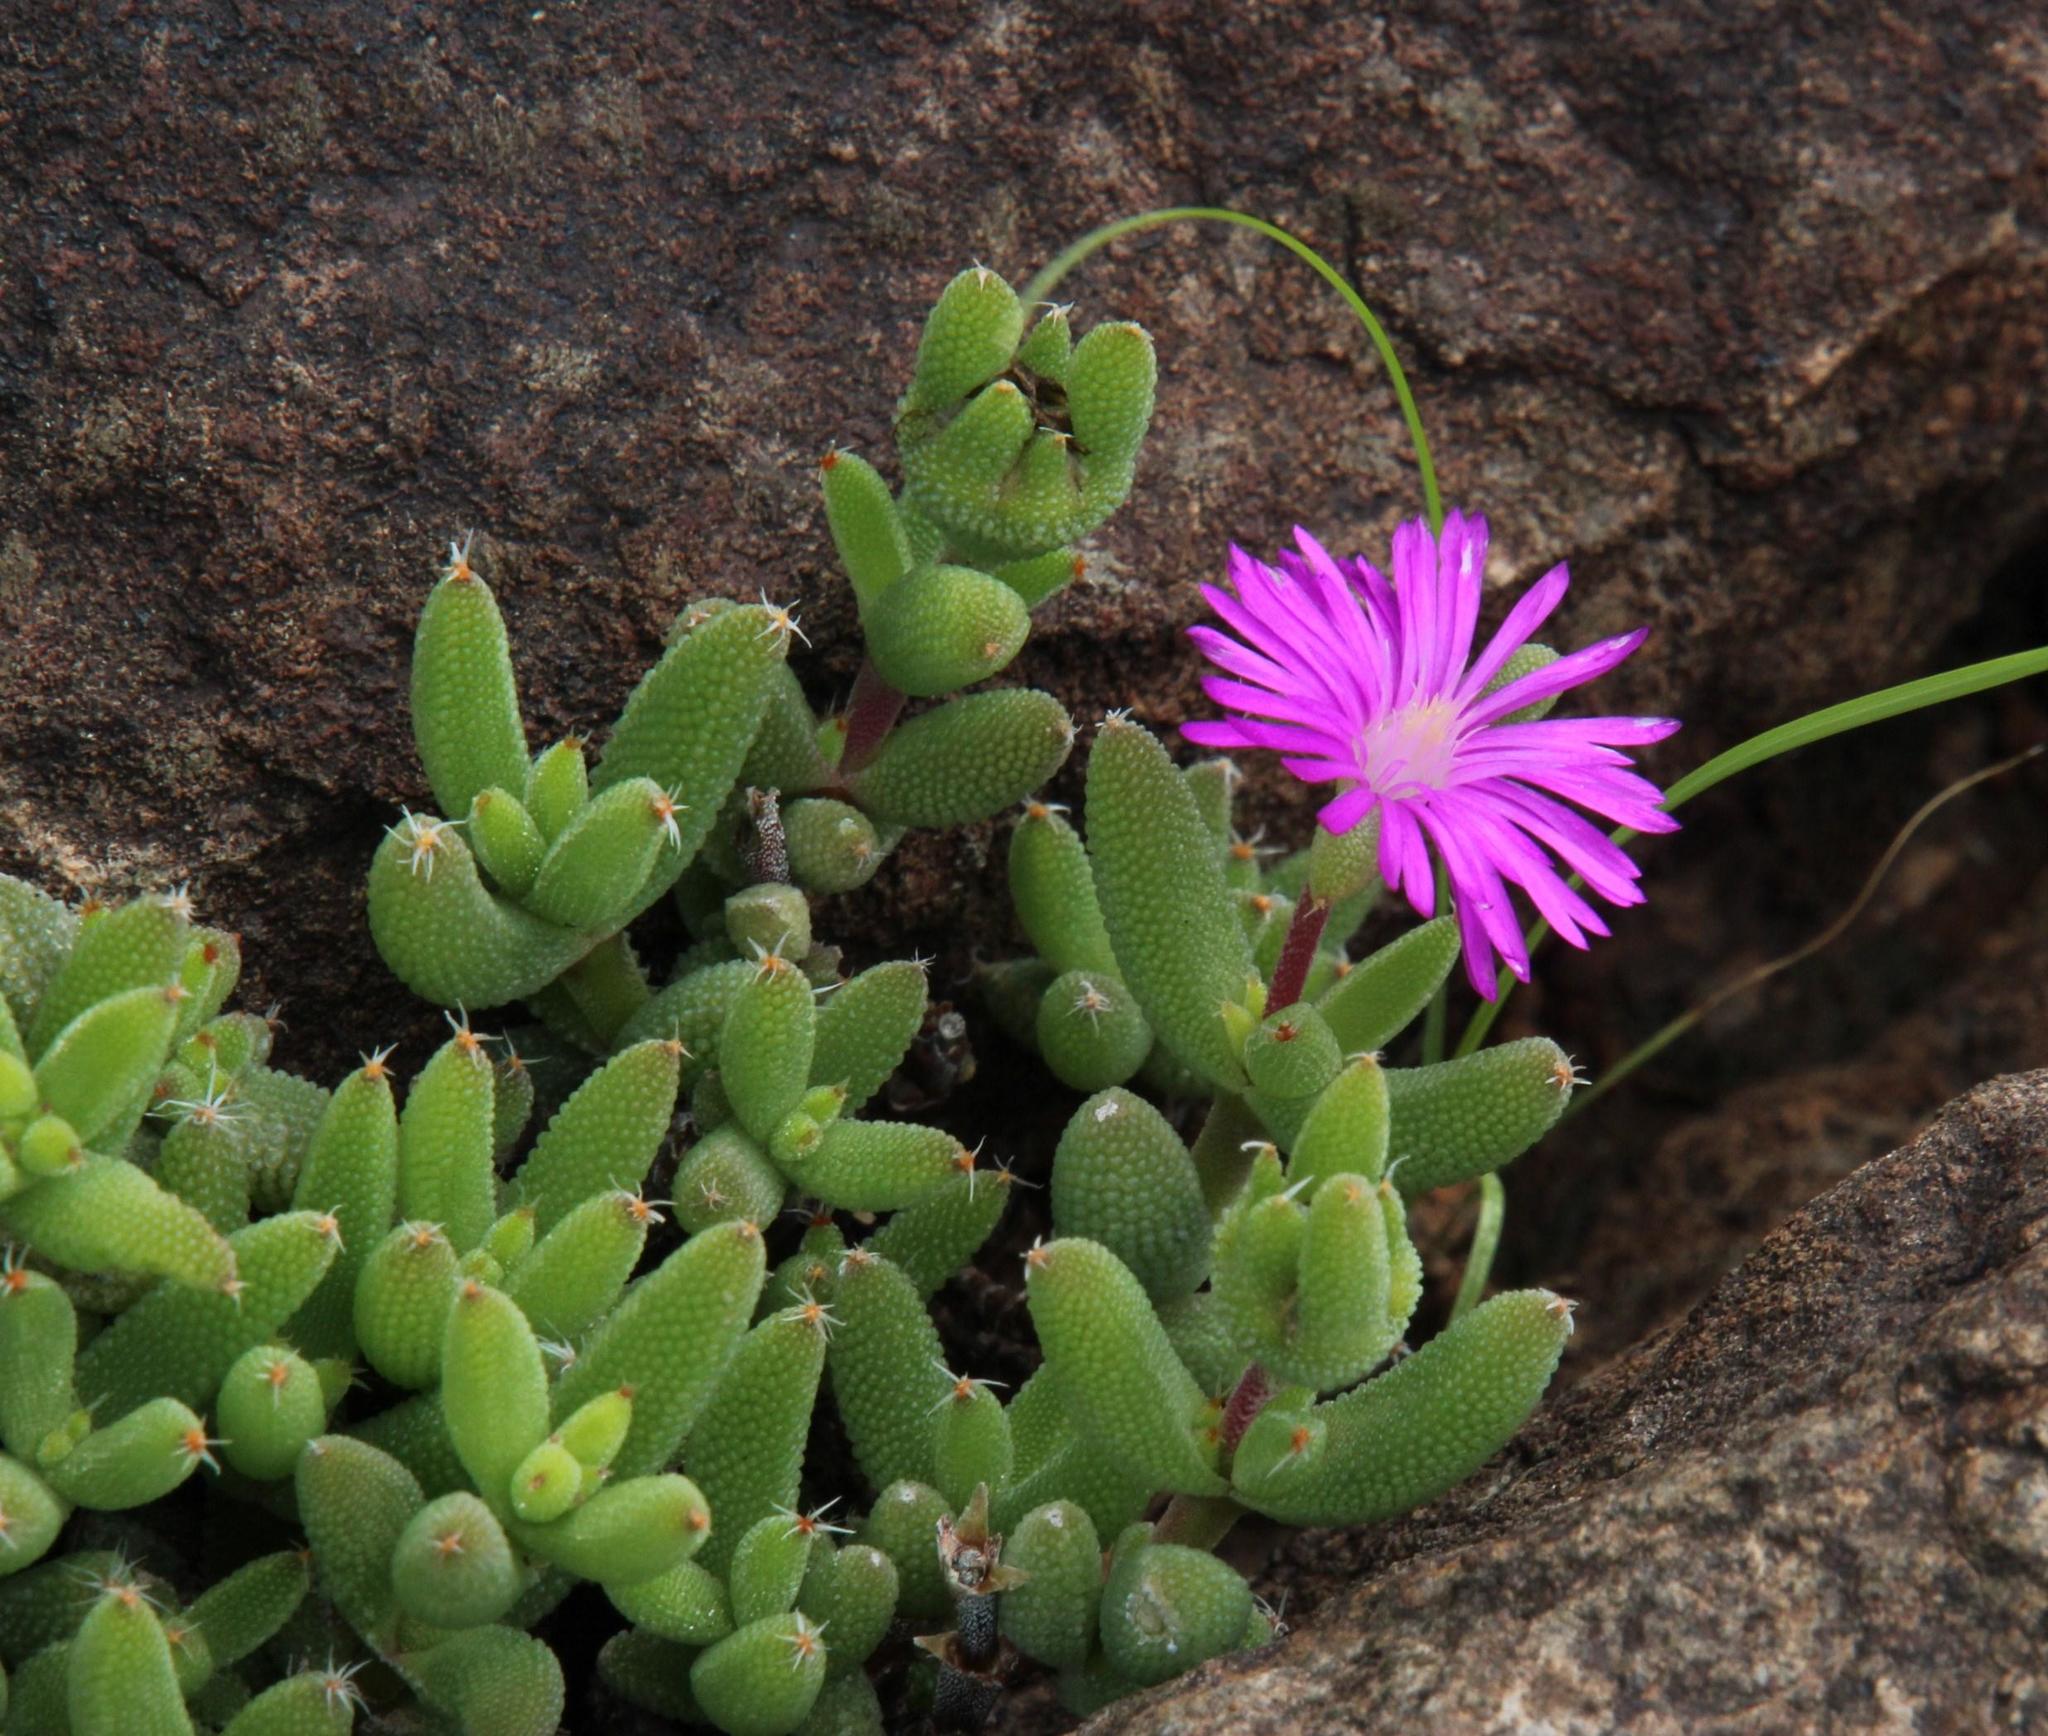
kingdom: Plantae
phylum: Tracheophyta
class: Magnoliopsida
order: Caryophyllales
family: Aizoaceae
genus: Trichodiadema
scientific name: Trichodiadema rogersiae
